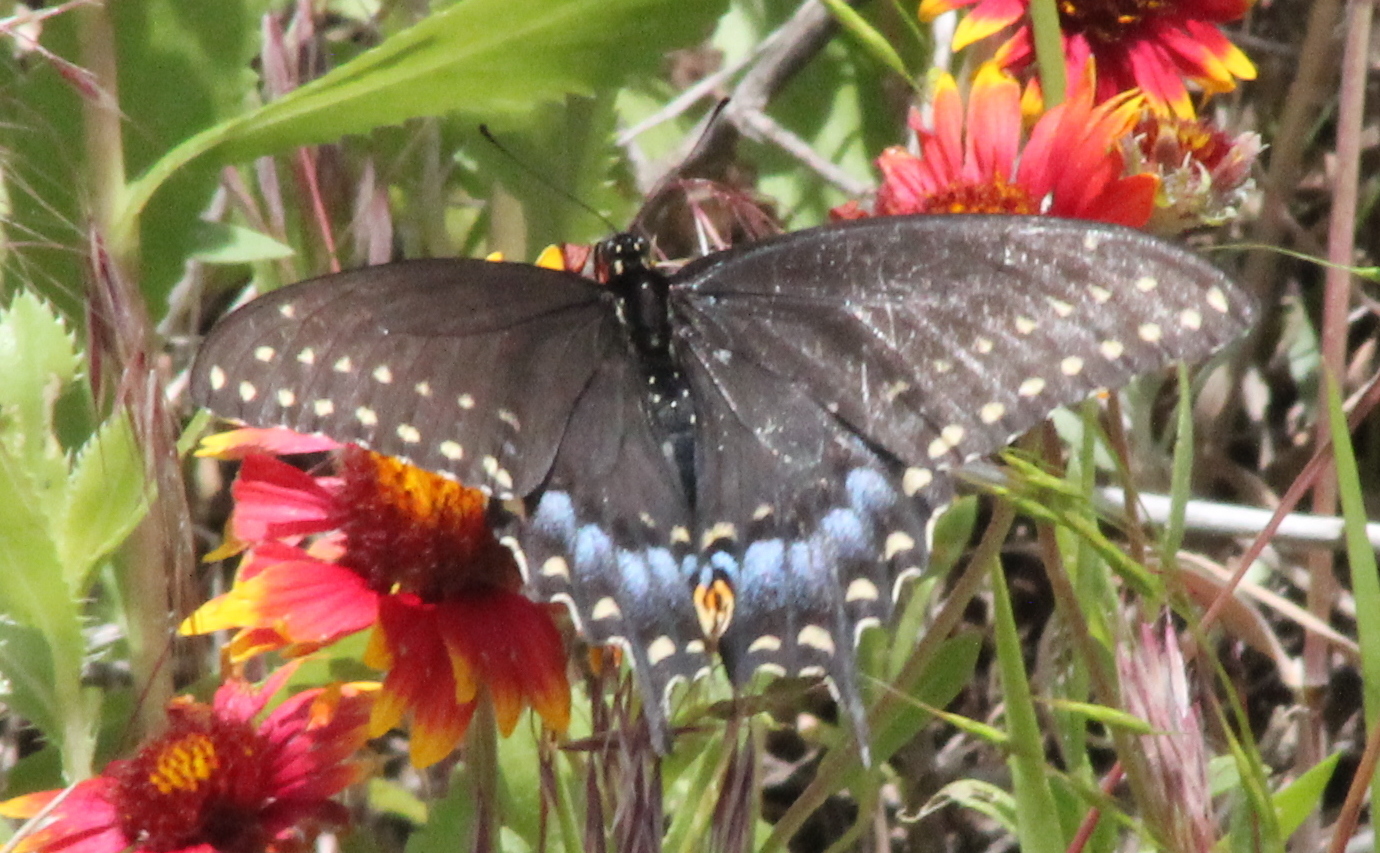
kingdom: Animalia
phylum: Arthropoda
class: Insecta
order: Lepidoptera
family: Papilionidae
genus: Papilio
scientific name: Papilio polyxenes
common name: Black swallowtail
